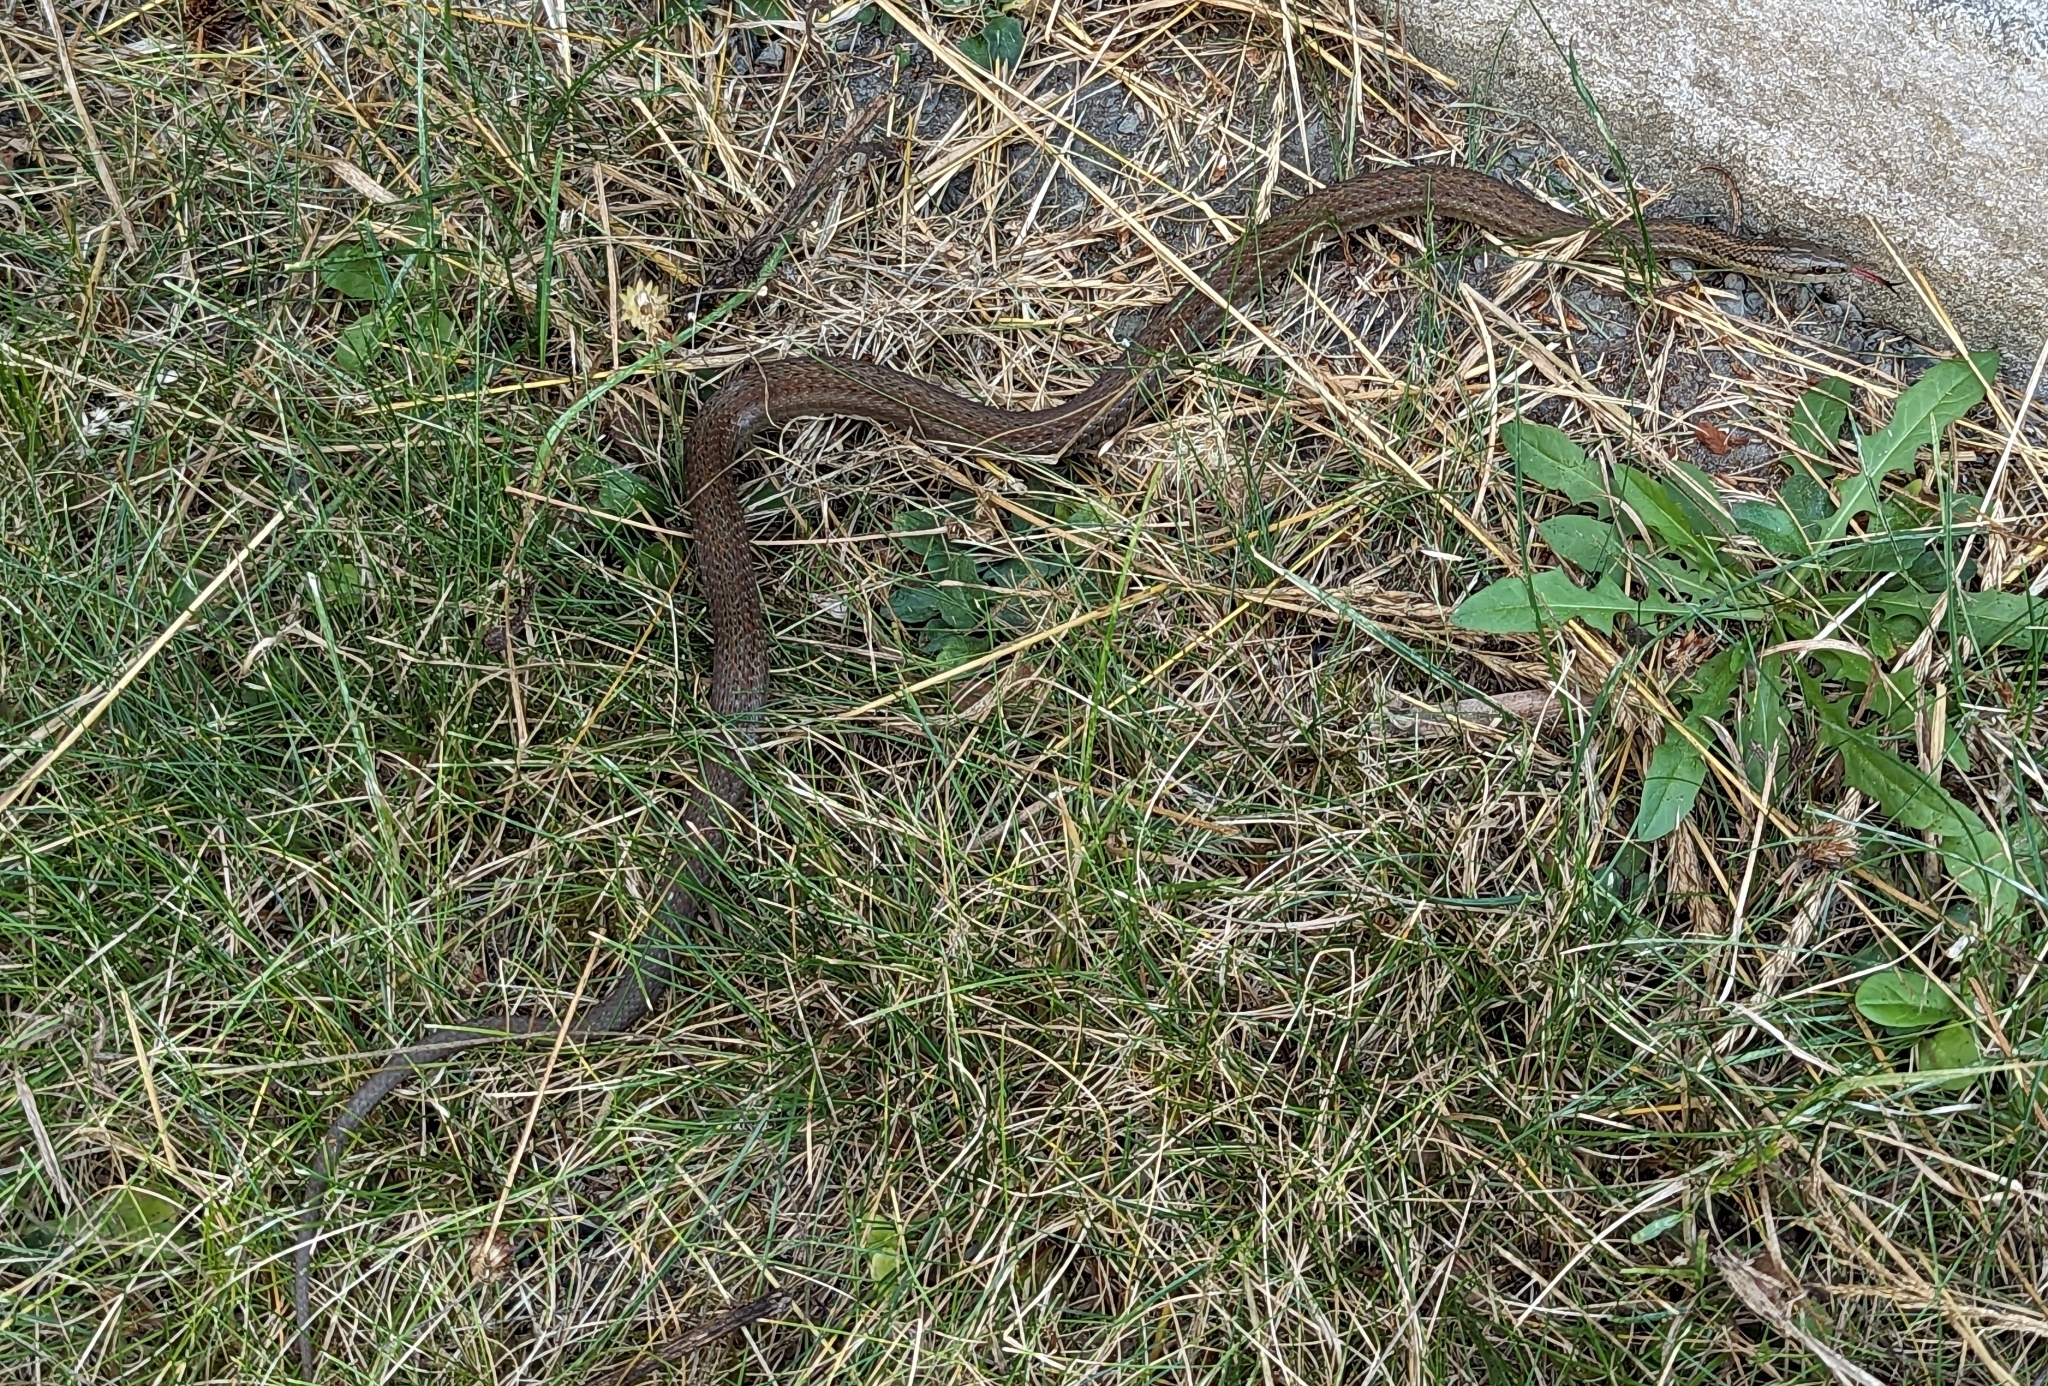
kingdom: Animalia
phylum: Chordata
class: Squamata
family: Colubridae
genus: Thamnophis
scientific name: Thamnophis ordinoides
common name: Northwestern garter snake
